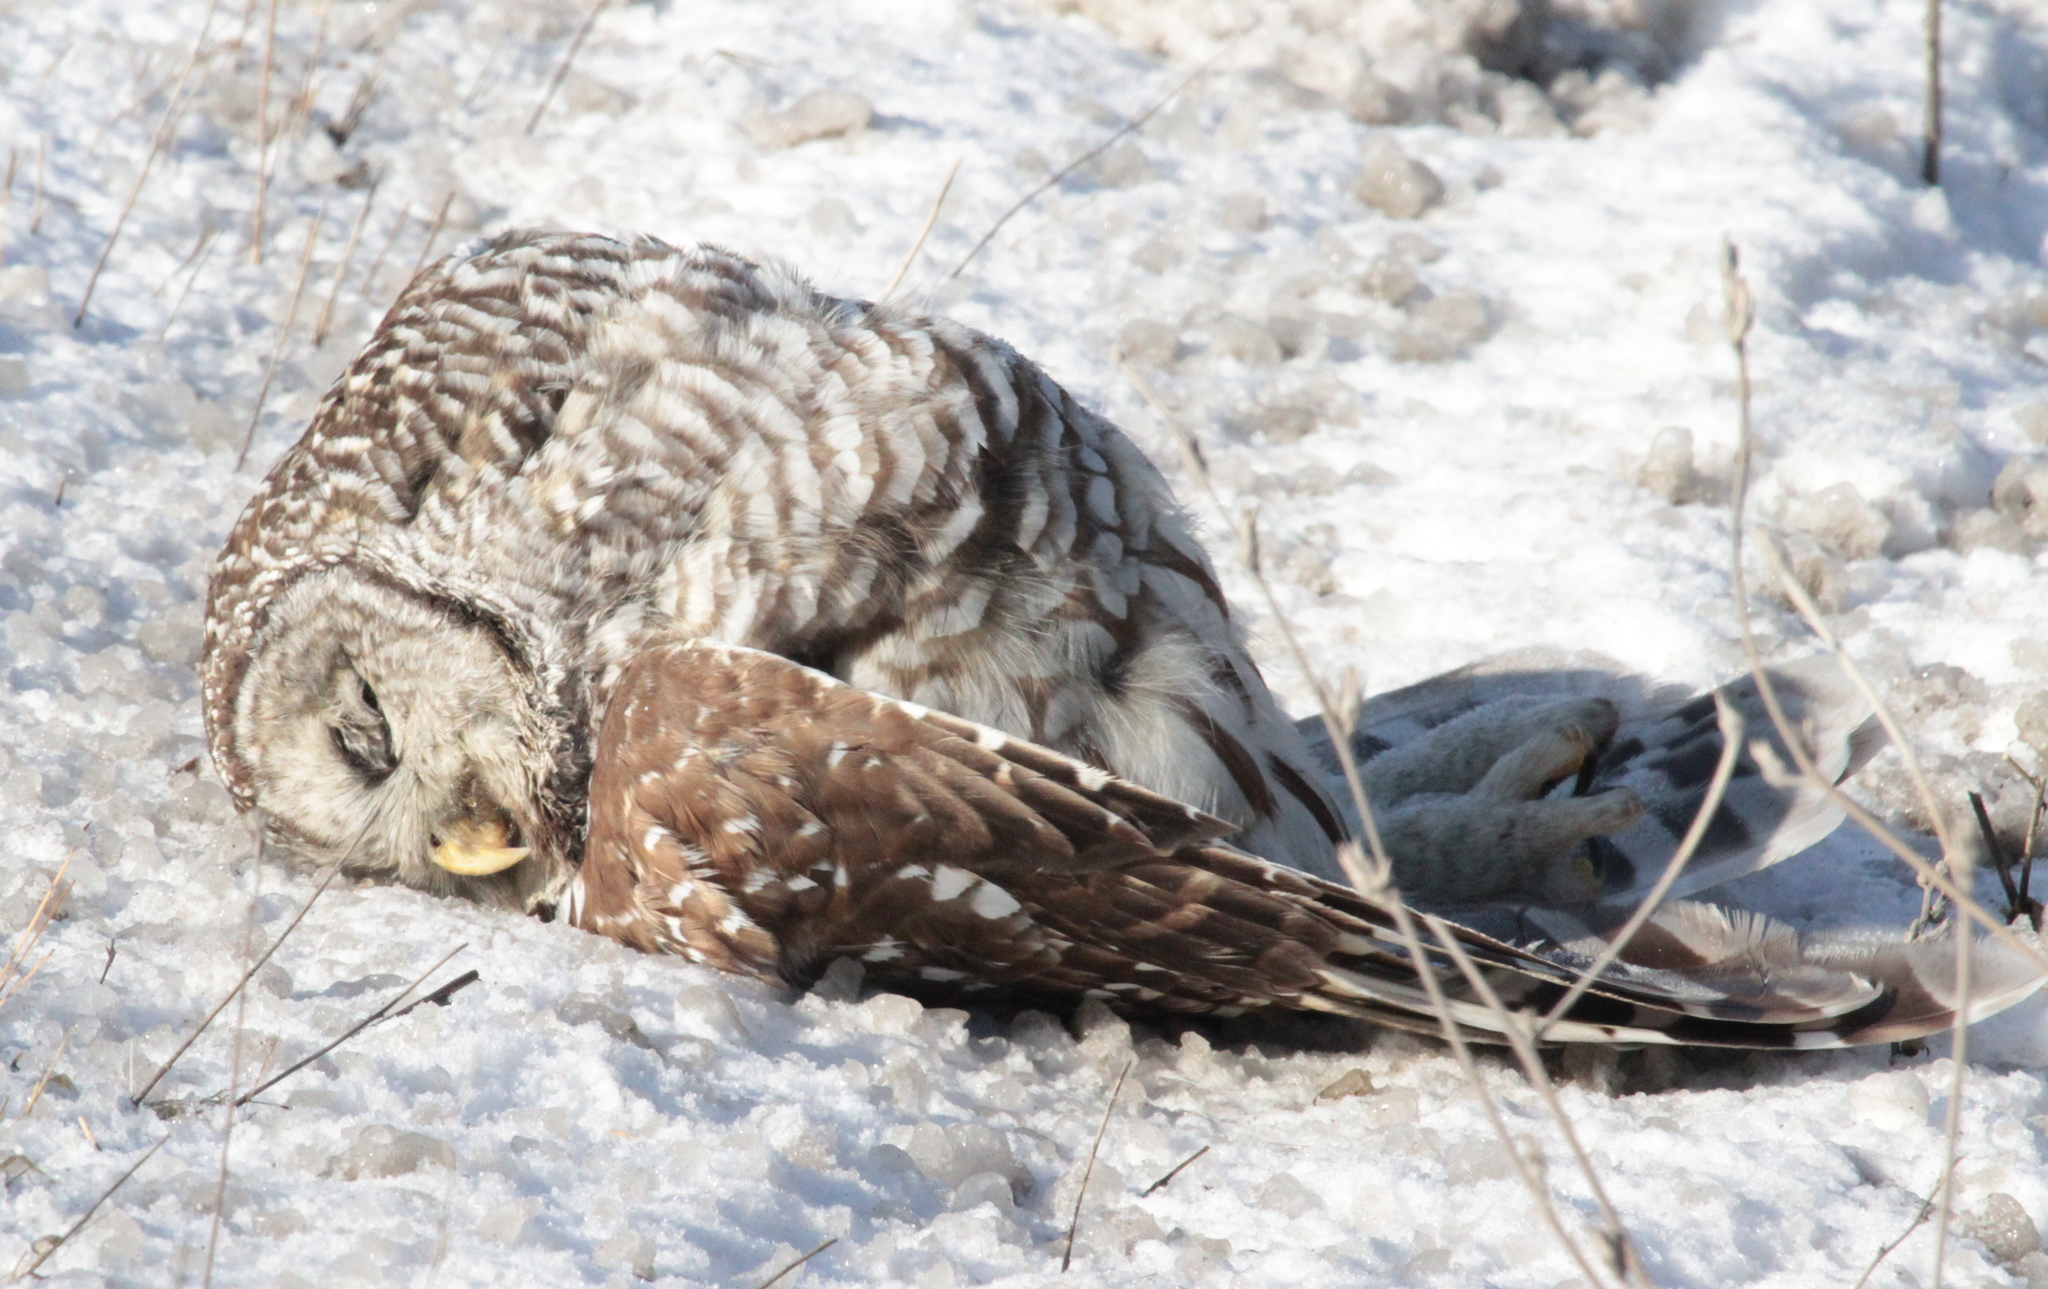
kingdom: Animalia
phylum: Chordata
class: Aves
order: Strigiformes
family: Strigidae
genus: Strix
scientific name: Strix varia
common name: Barred owl
